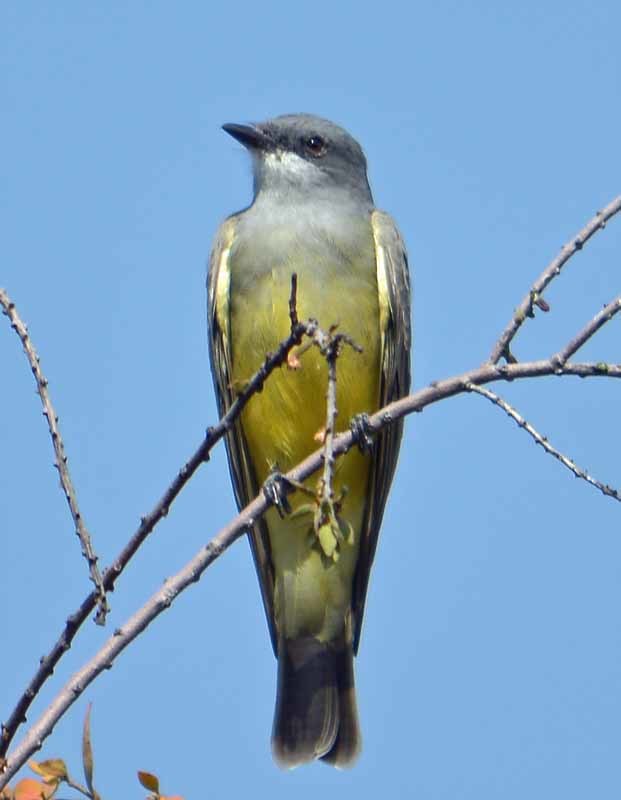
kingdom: Animalia
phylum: Chordata
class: Aves
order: Passeriformes
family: Tyrannidae
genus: Tyrannus
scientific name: Tyrannus vociferans
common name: Cassin's kingbird
